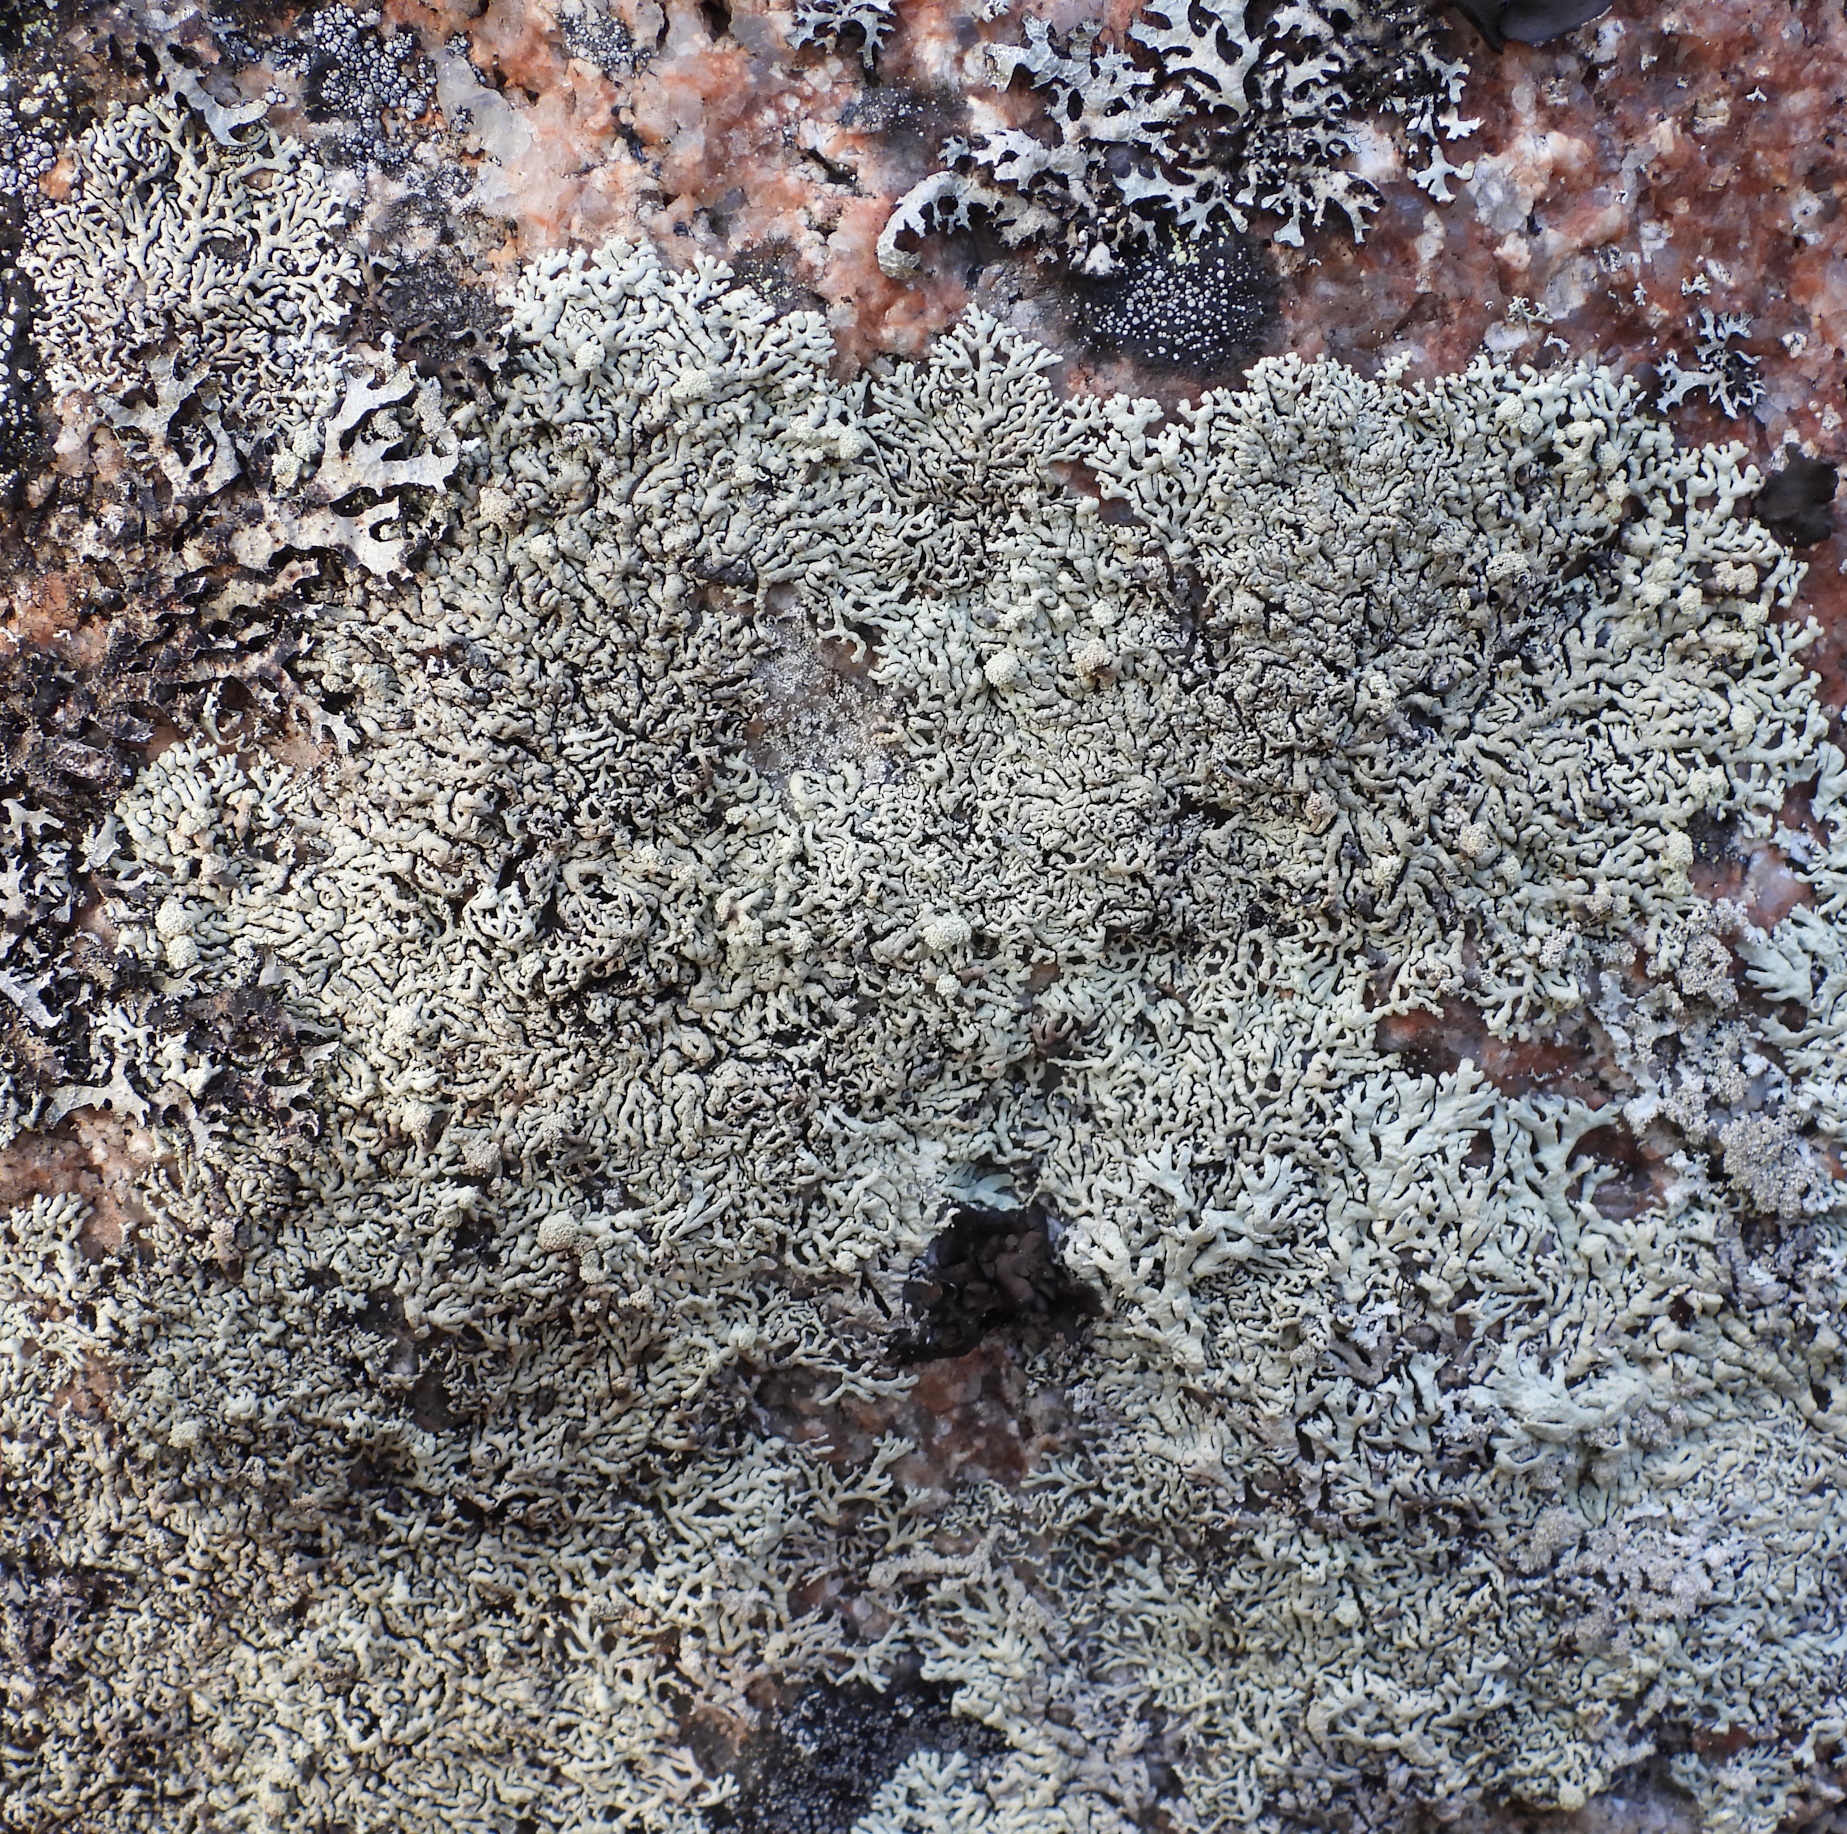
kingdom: Fungi
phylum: Ascomycota
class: Lecanoromycetes
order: Lecanorales
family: Parmeliaceae
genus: Arctoparmelia
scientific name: Arctoparmelia incurva
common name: Bent ring lichen
